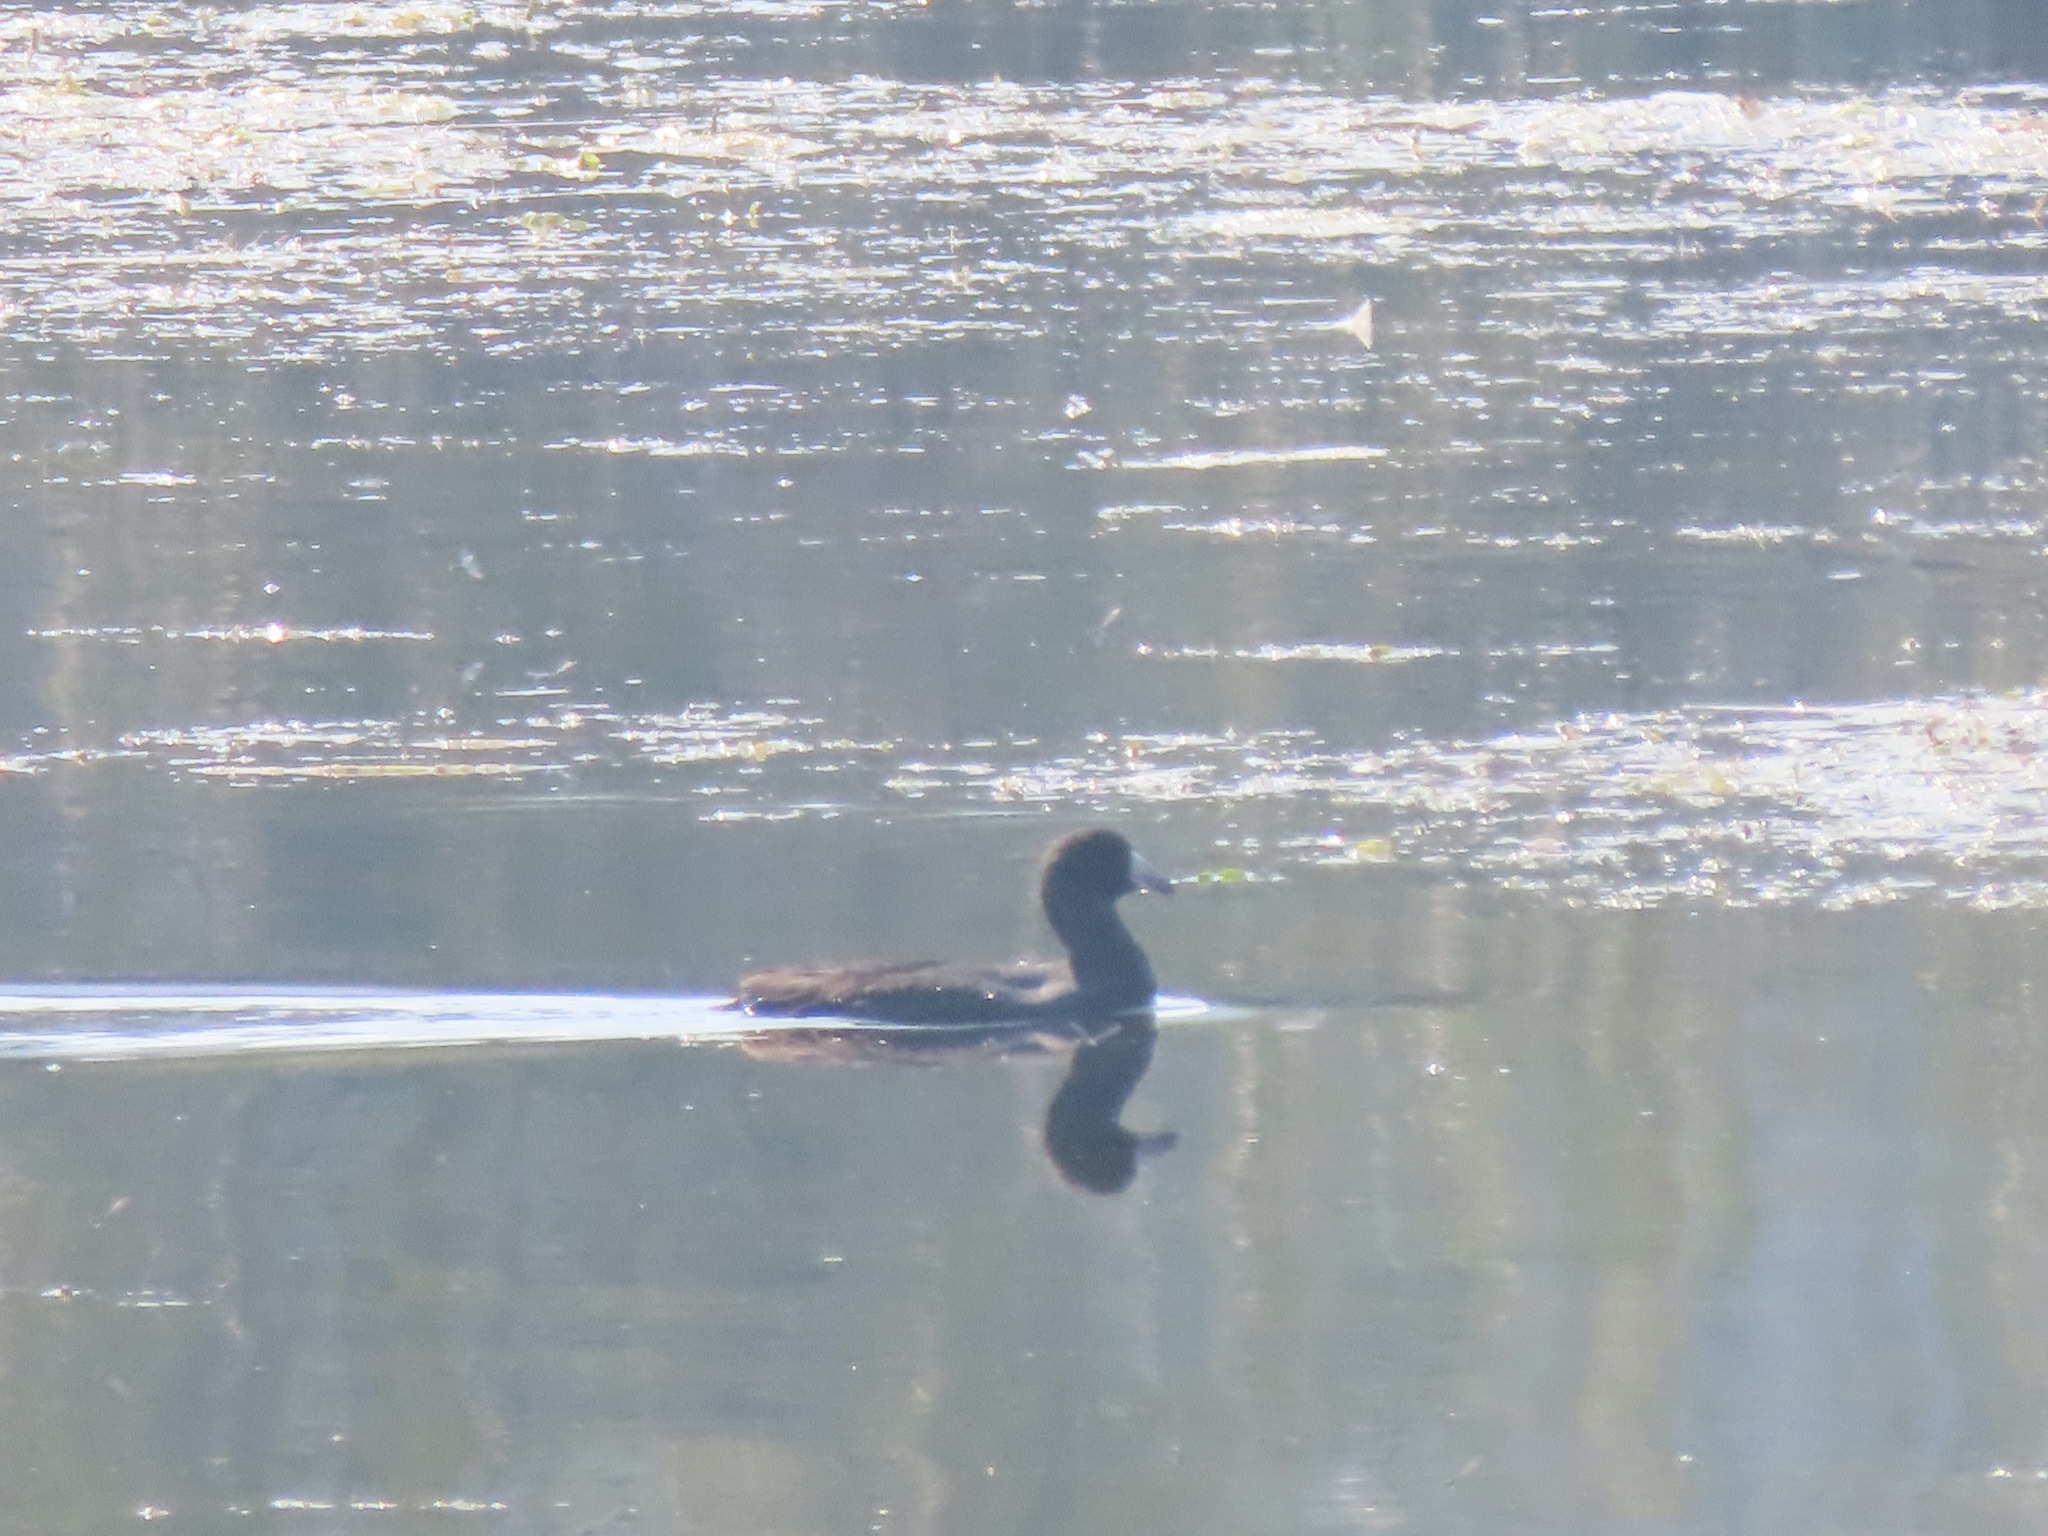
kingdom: Animalia
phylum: Chordata
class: Aves
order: Gruiformes
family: Rallidae
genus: Fulica
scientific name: Fulica americana
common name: American coot
